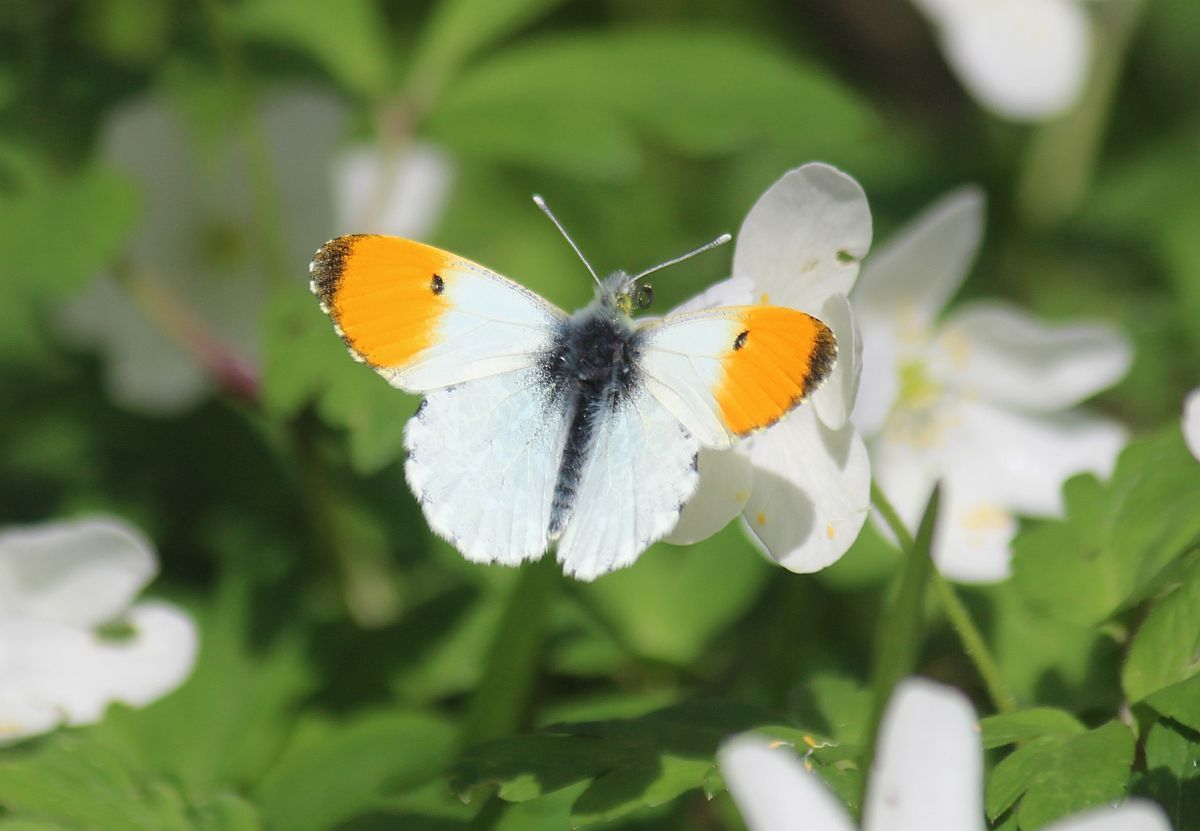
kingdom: Animalia
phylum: Arthropoda
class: Insecta
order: Lepidoptera
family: Pieridae
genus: Anthocharis
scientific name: Anthocharis cardamines
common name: Orange-tip
